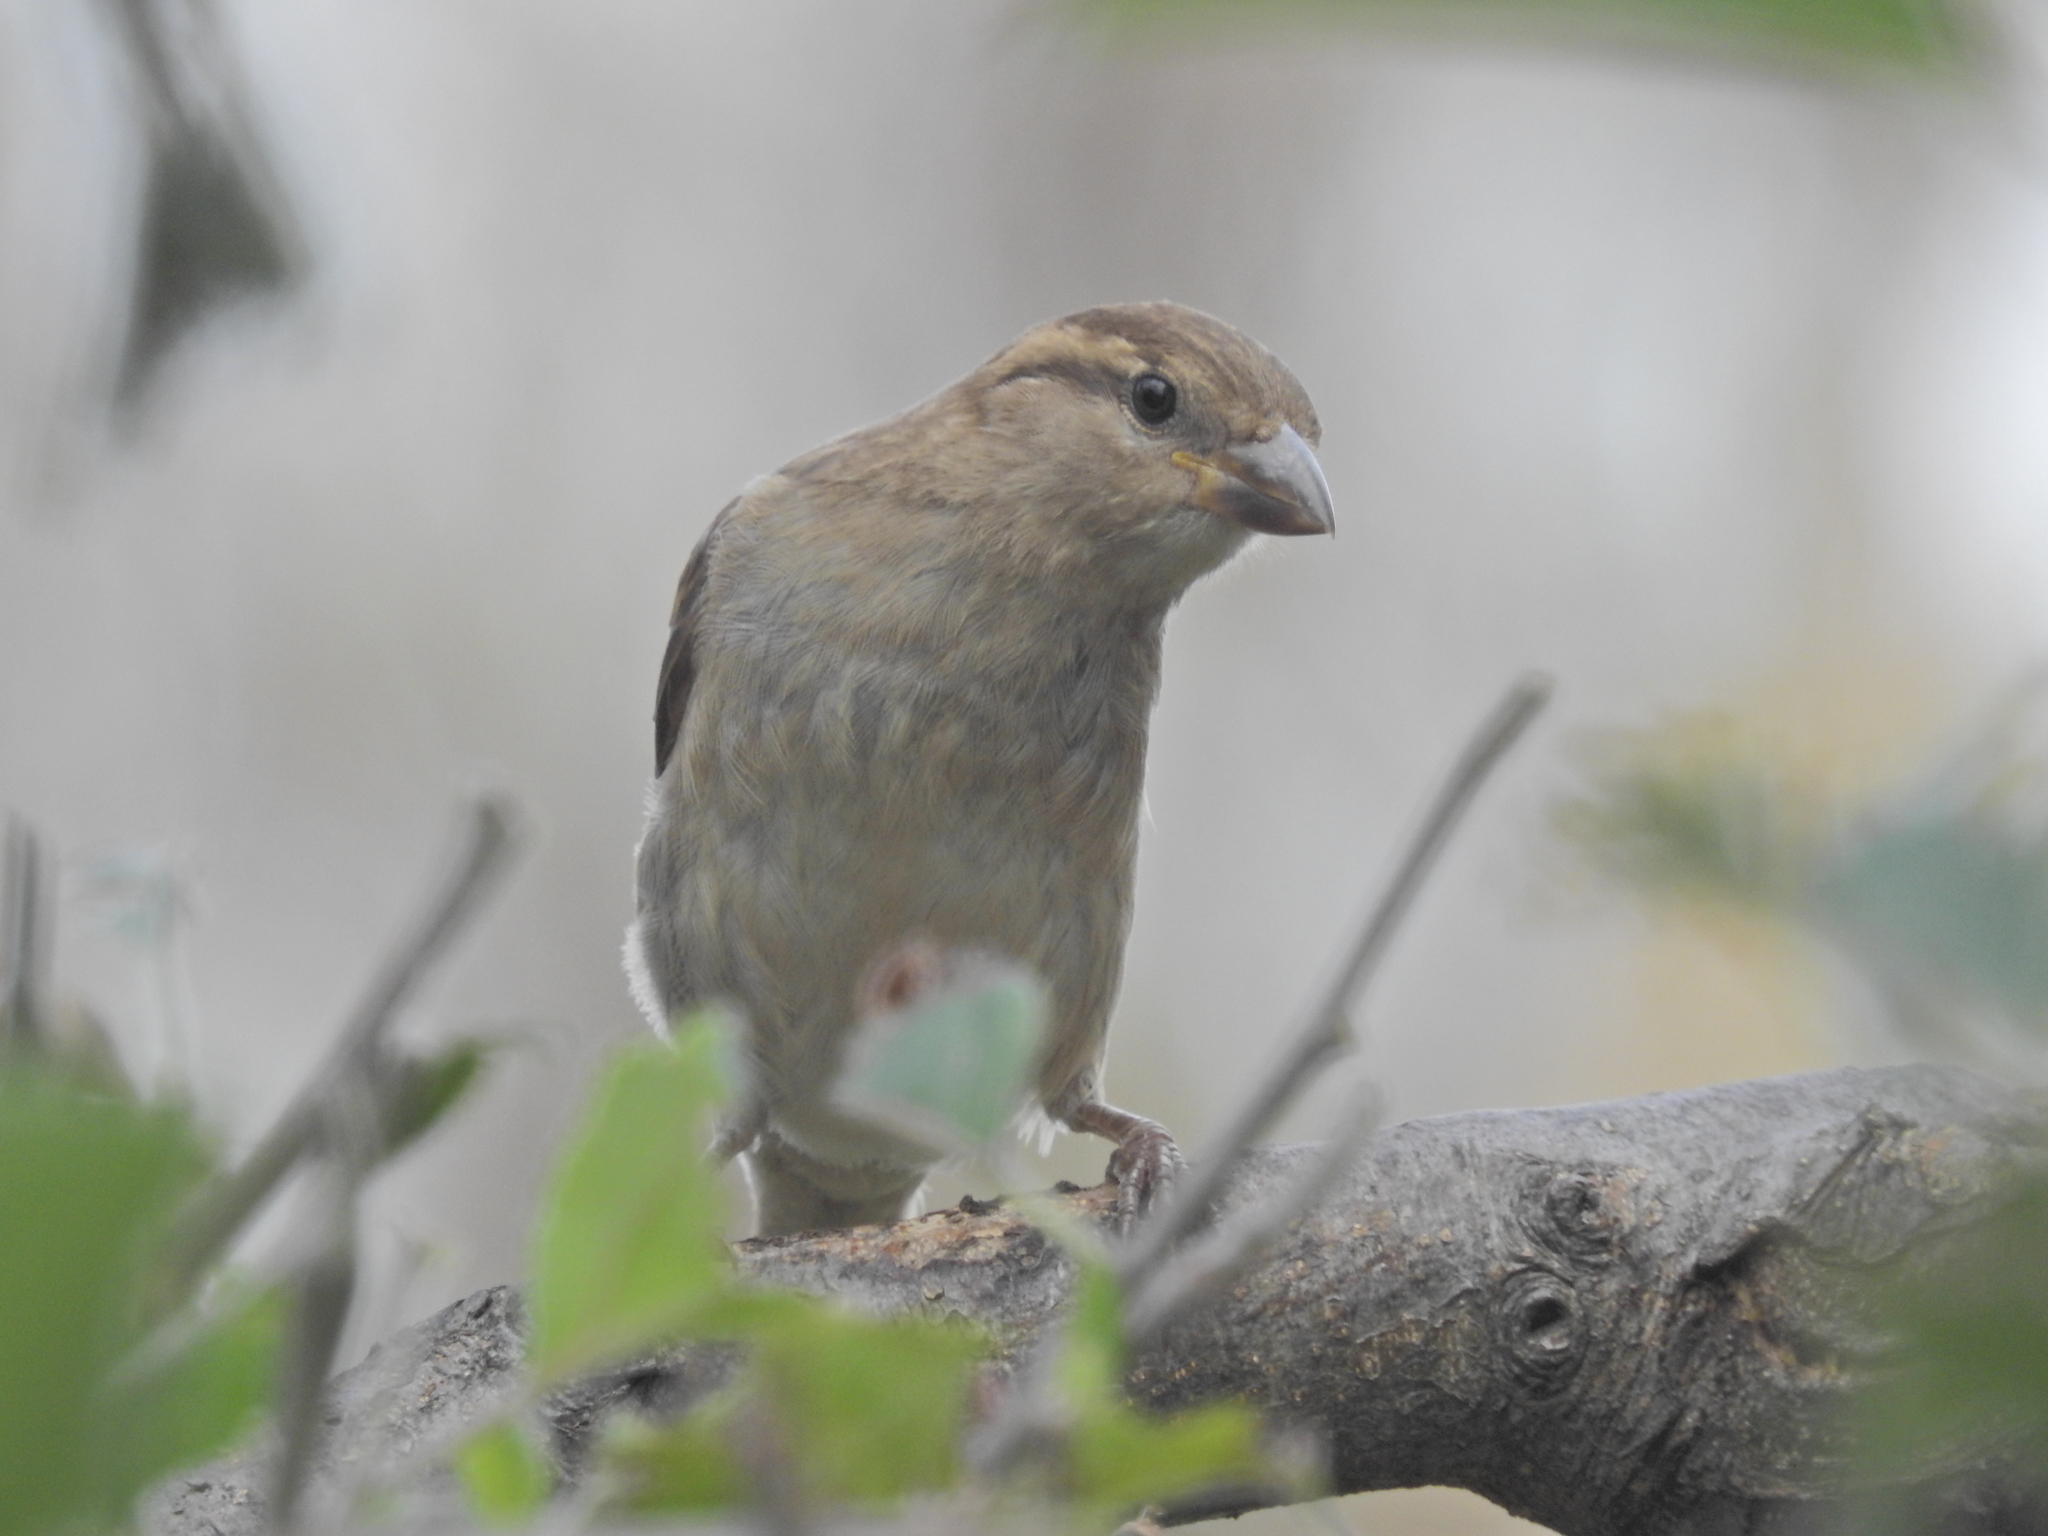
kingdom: Animalia
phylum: Chordata
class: Aves
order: Passeriformes
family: Passeridae
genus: Passer
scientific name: Passer domesticus
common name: House sparrow
